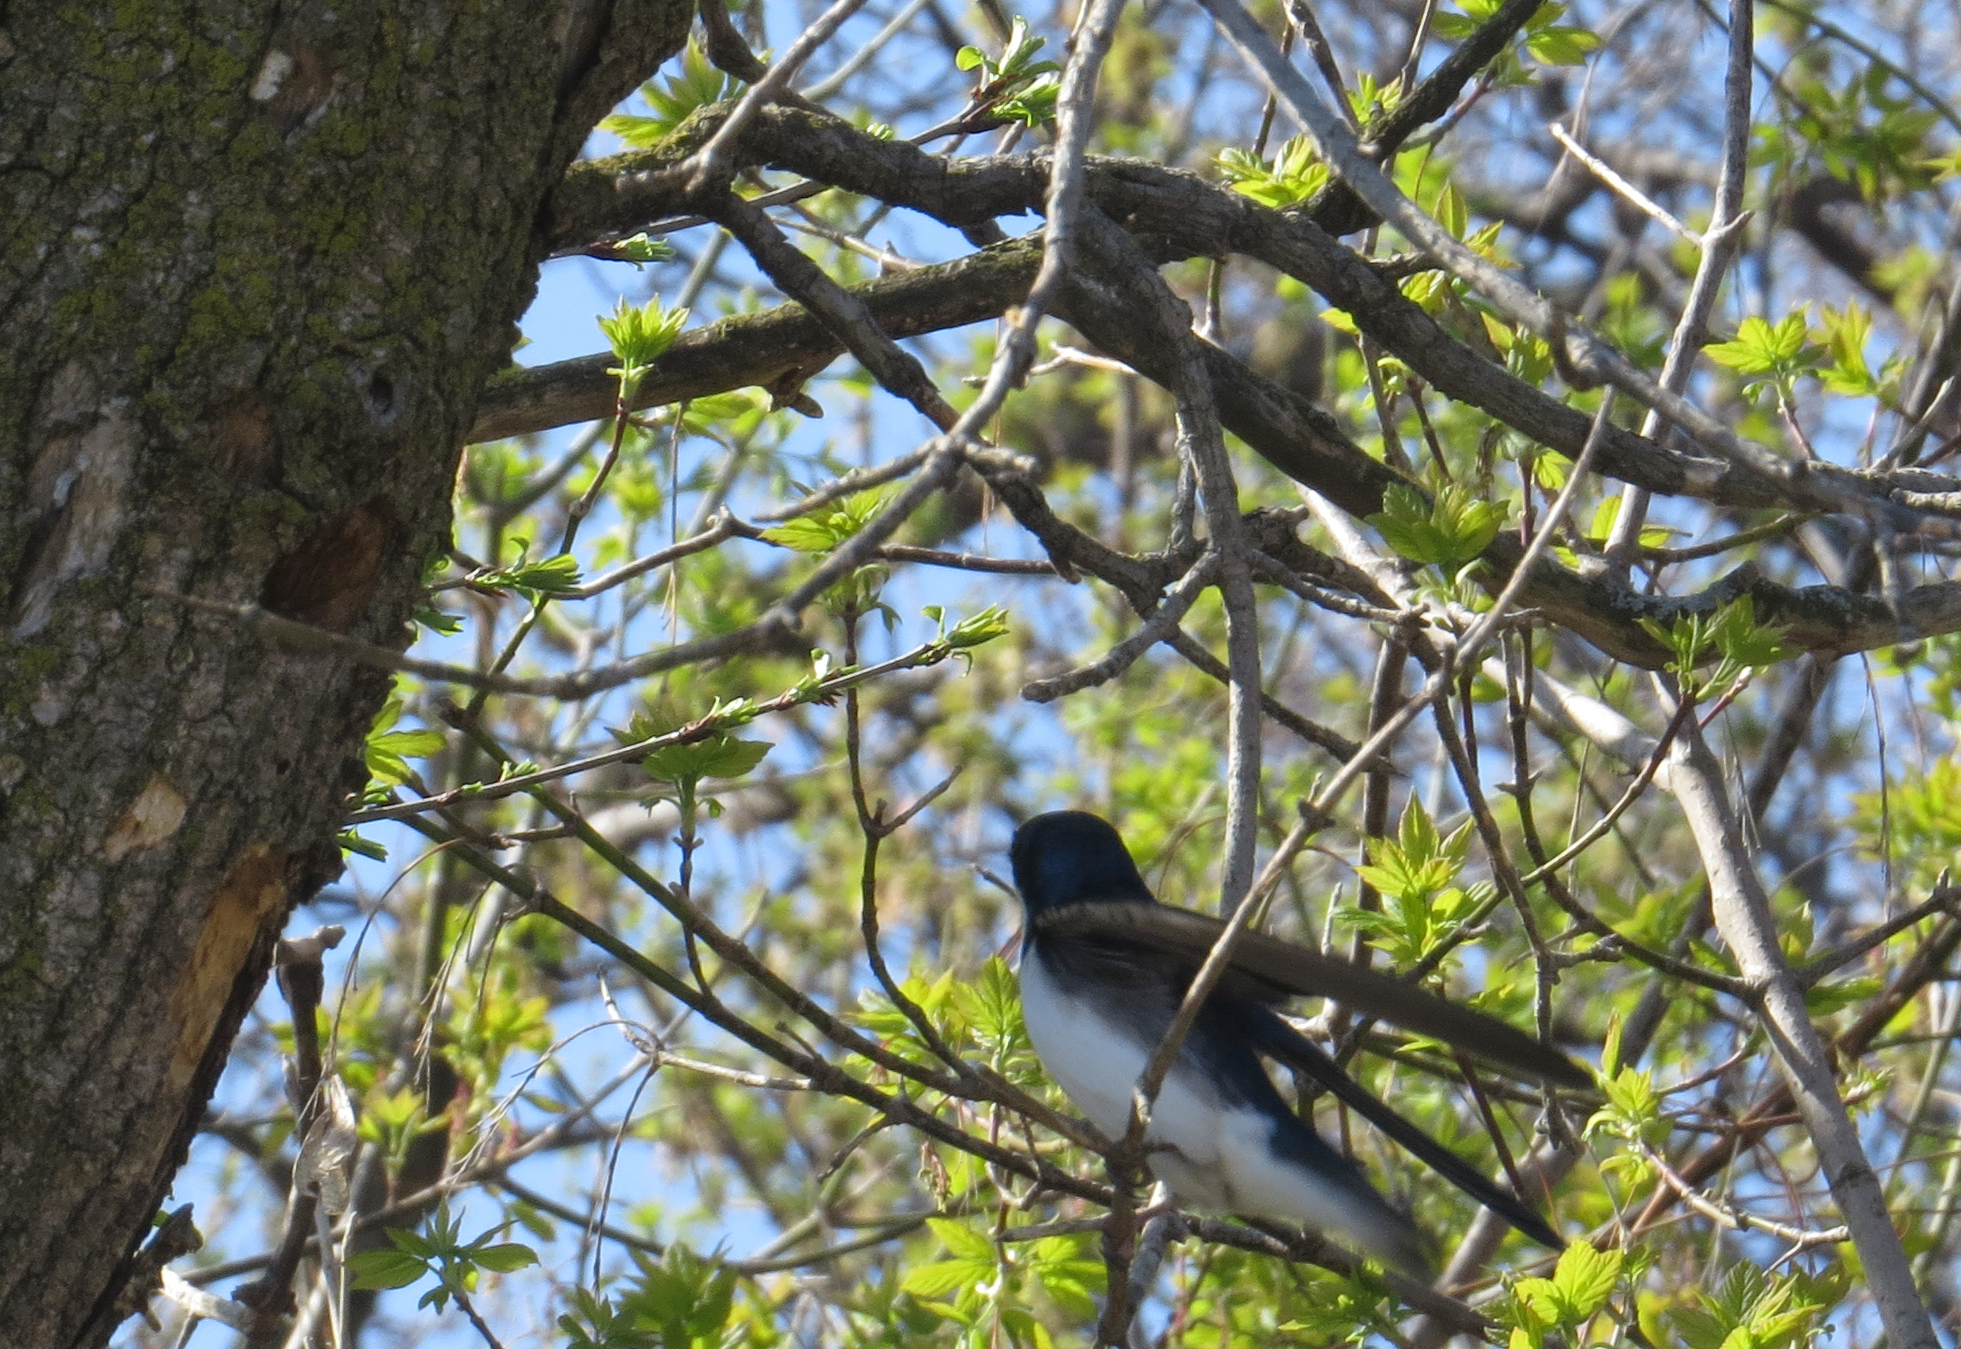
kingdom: Animalia
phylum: Chordata
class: Aves
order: Passeriformes
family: Hirundinidae
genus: Tachycineta
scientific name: Tachycineta bicolor
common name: Tree swallow
